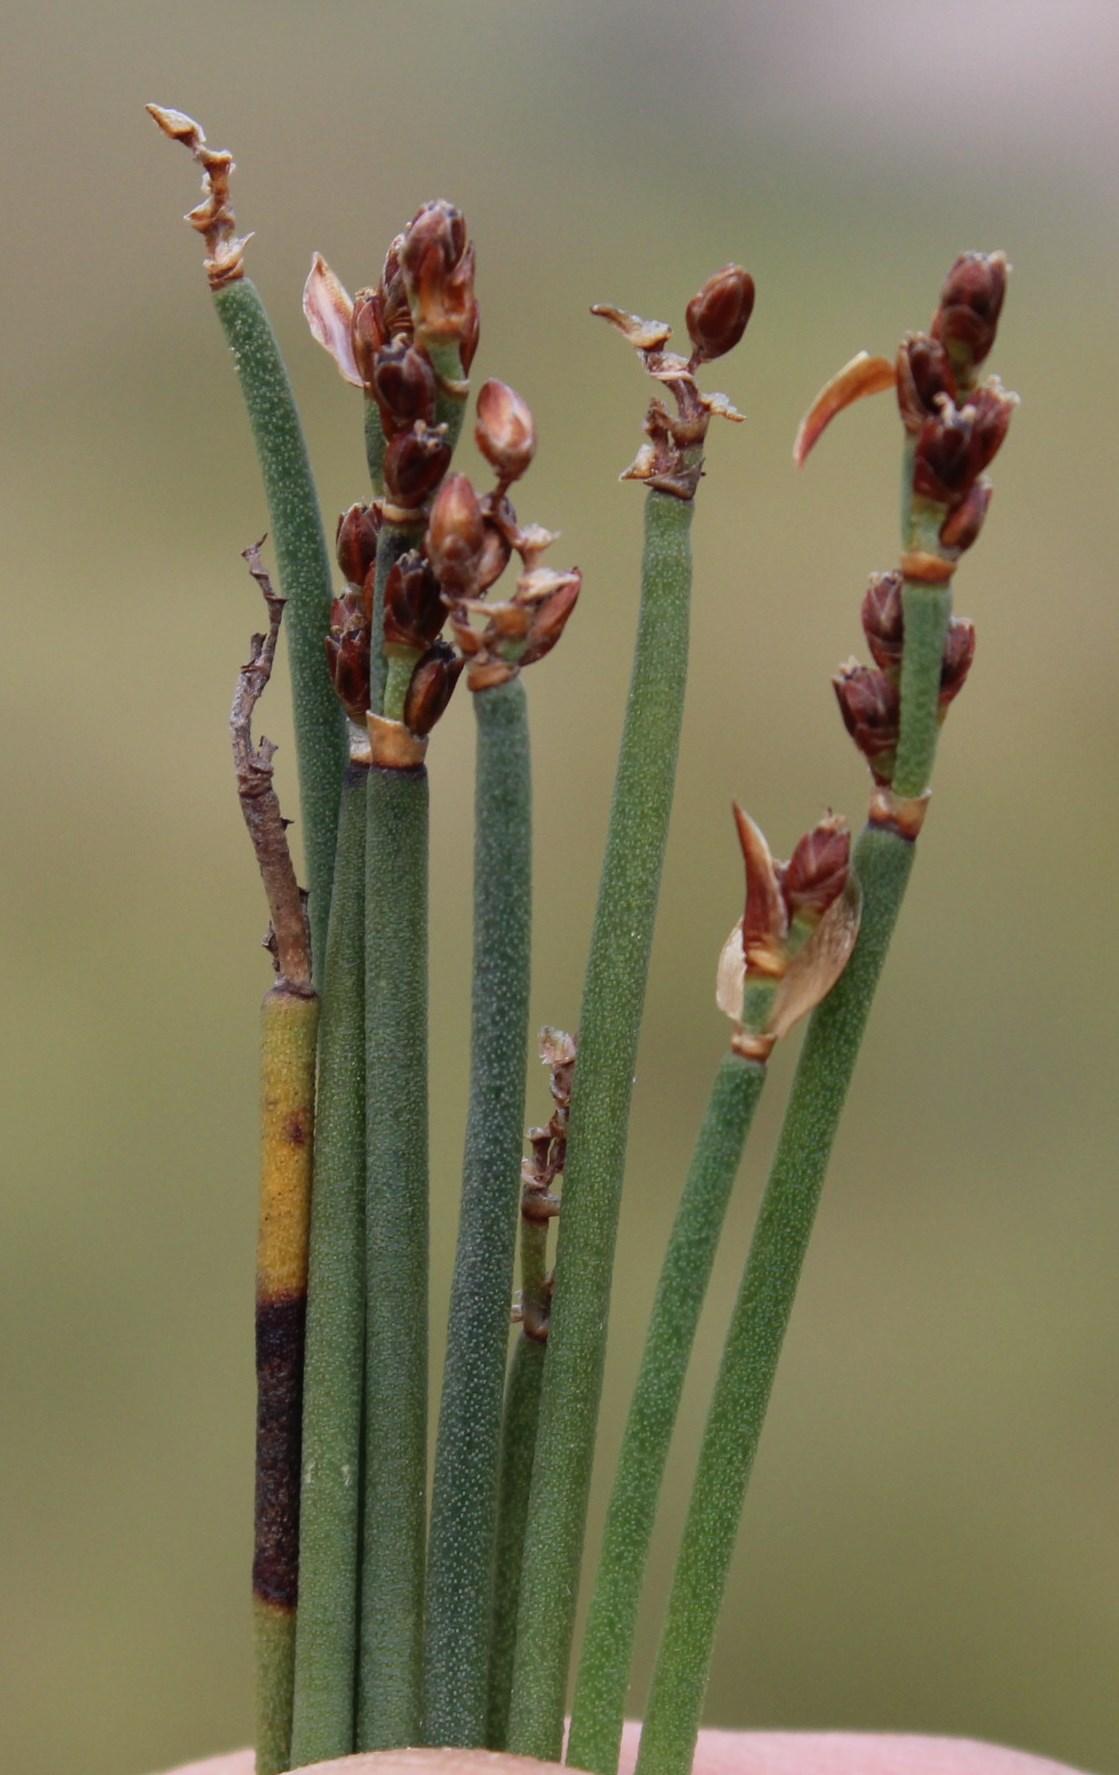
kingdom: Plantae
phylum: Tracheophyta
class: Liliopsida
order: Poales
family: Restionaceae
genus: Elegia
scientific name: Elegia squamosa
